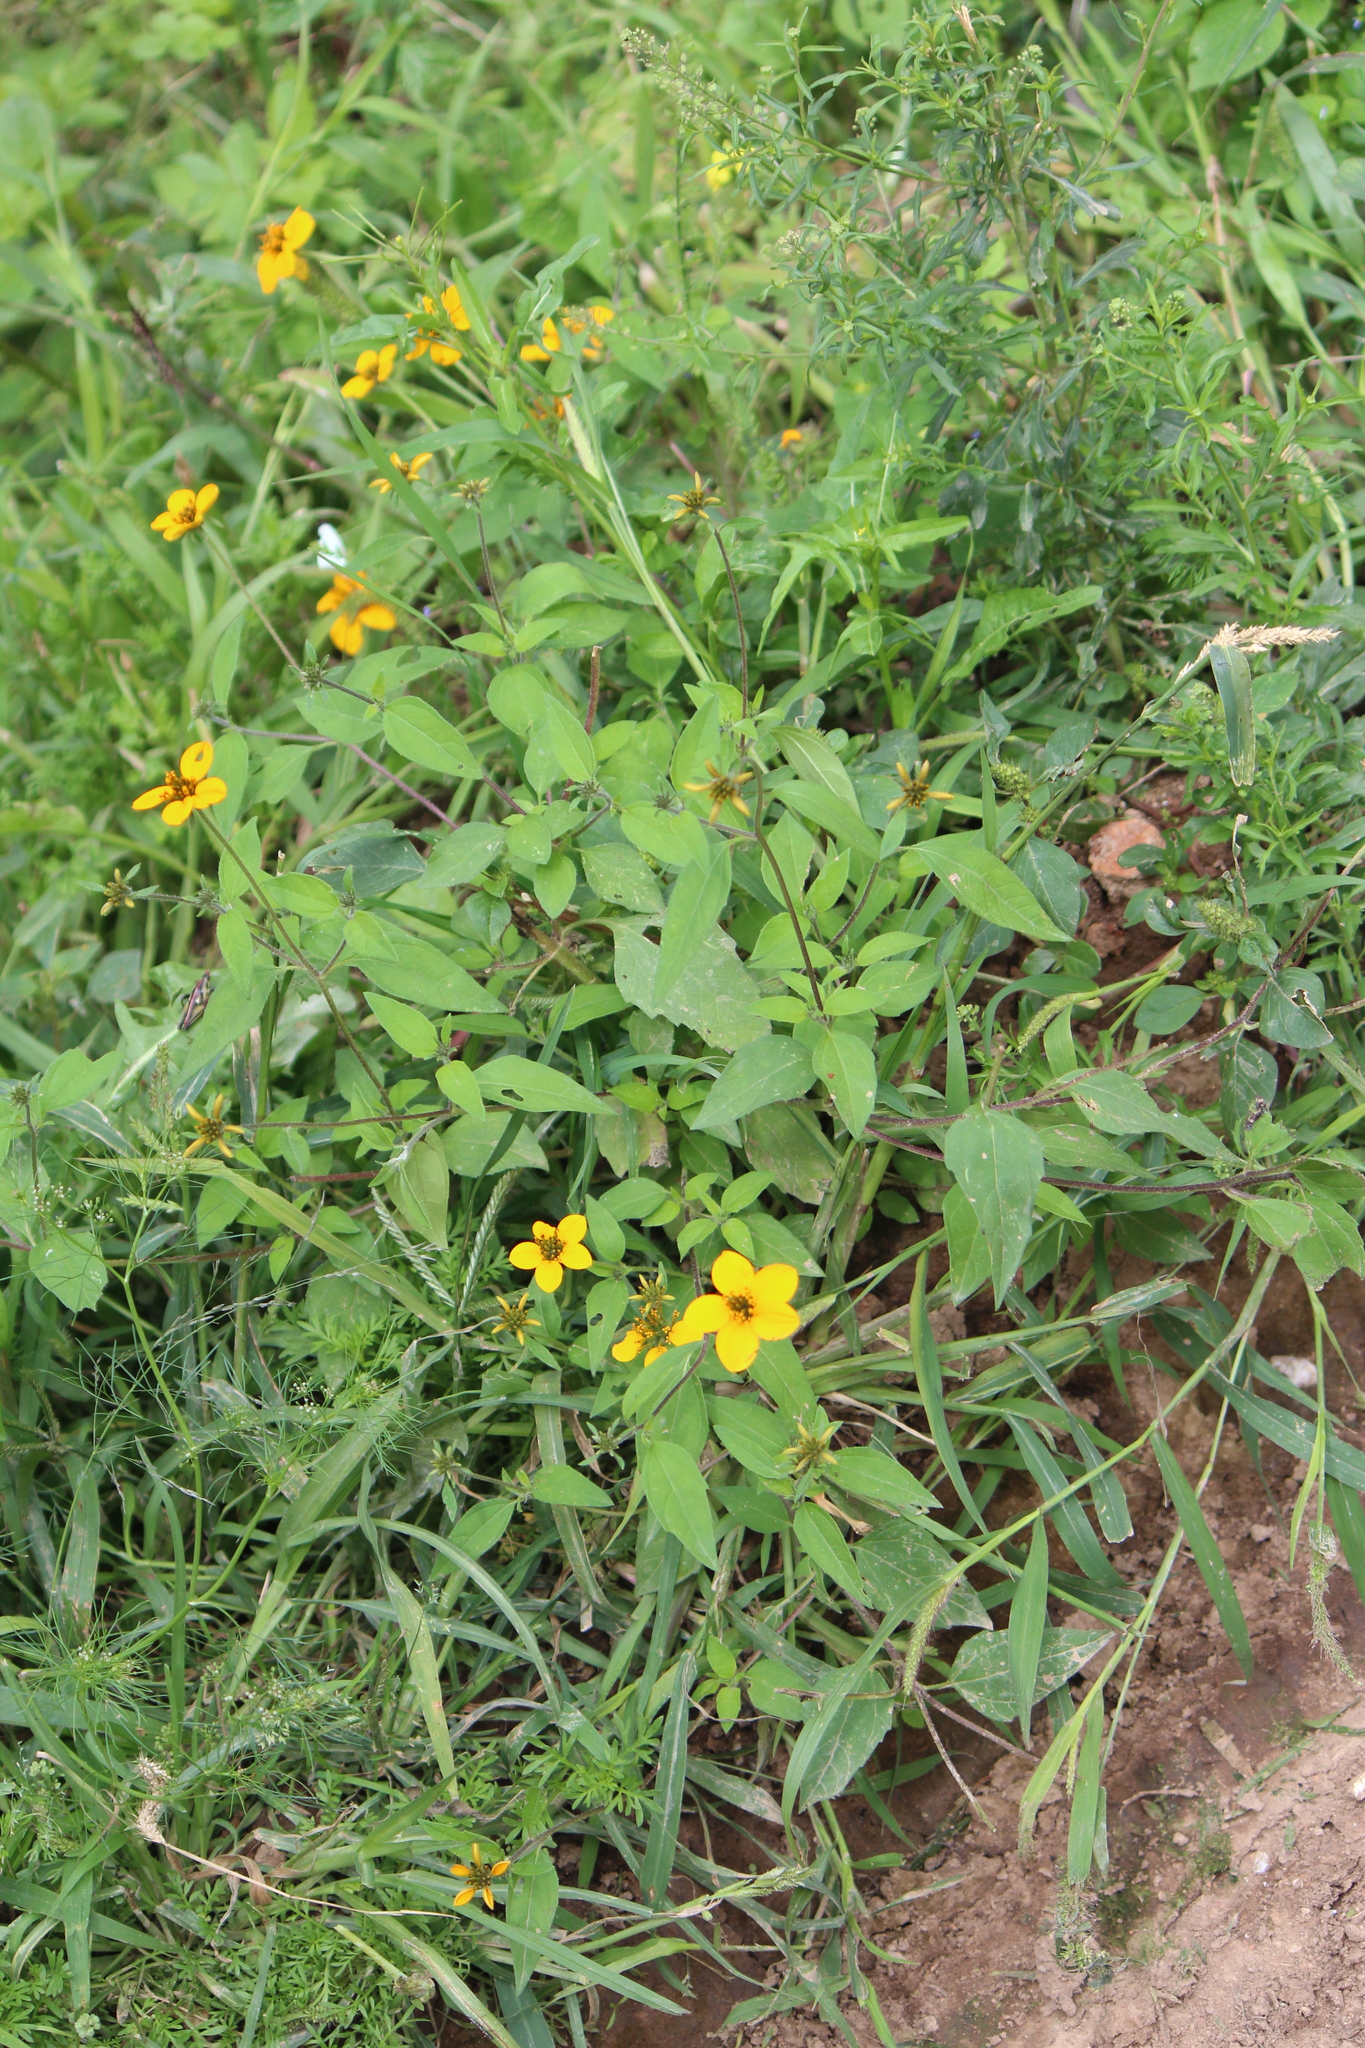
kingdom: Plantae
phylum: Tracheophyta
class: Magnoliopsida
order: Asterales
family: Asteraceae
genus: Sclerocarpus
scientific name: Sclerocarpus uniserialis
